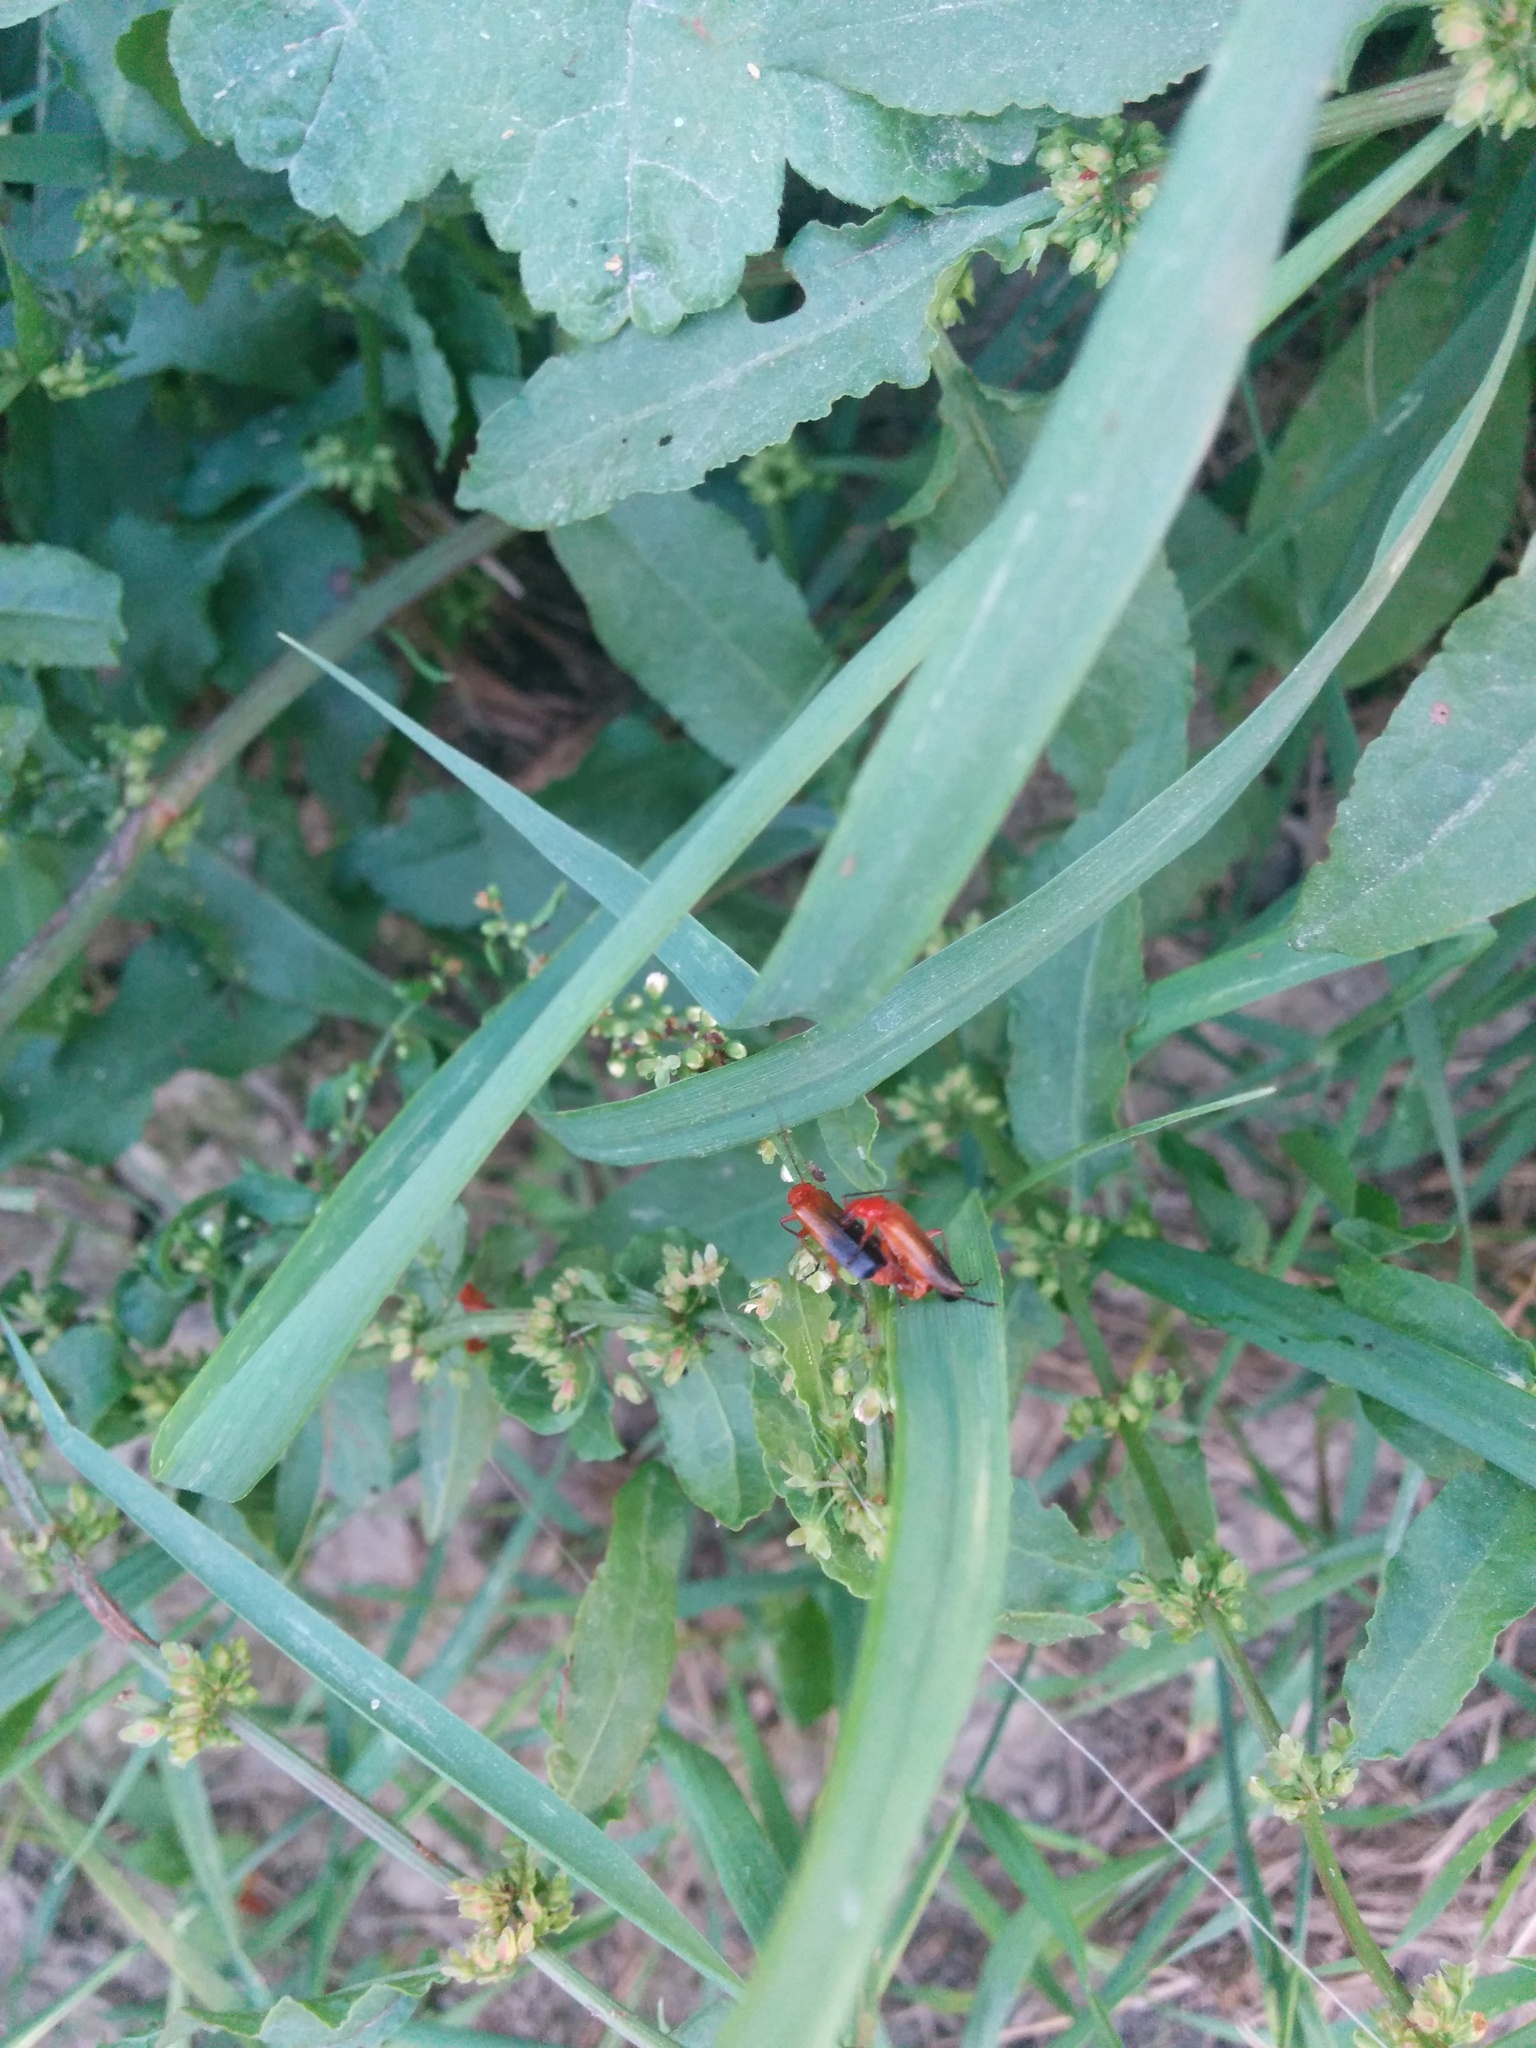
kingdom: Animalia
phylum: Arthropoda
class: Insecta
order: Coleoptera
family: Cantharidae
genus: Rhagonycha
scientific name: Rhagonycha fulva
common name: Common red soldier beetle
